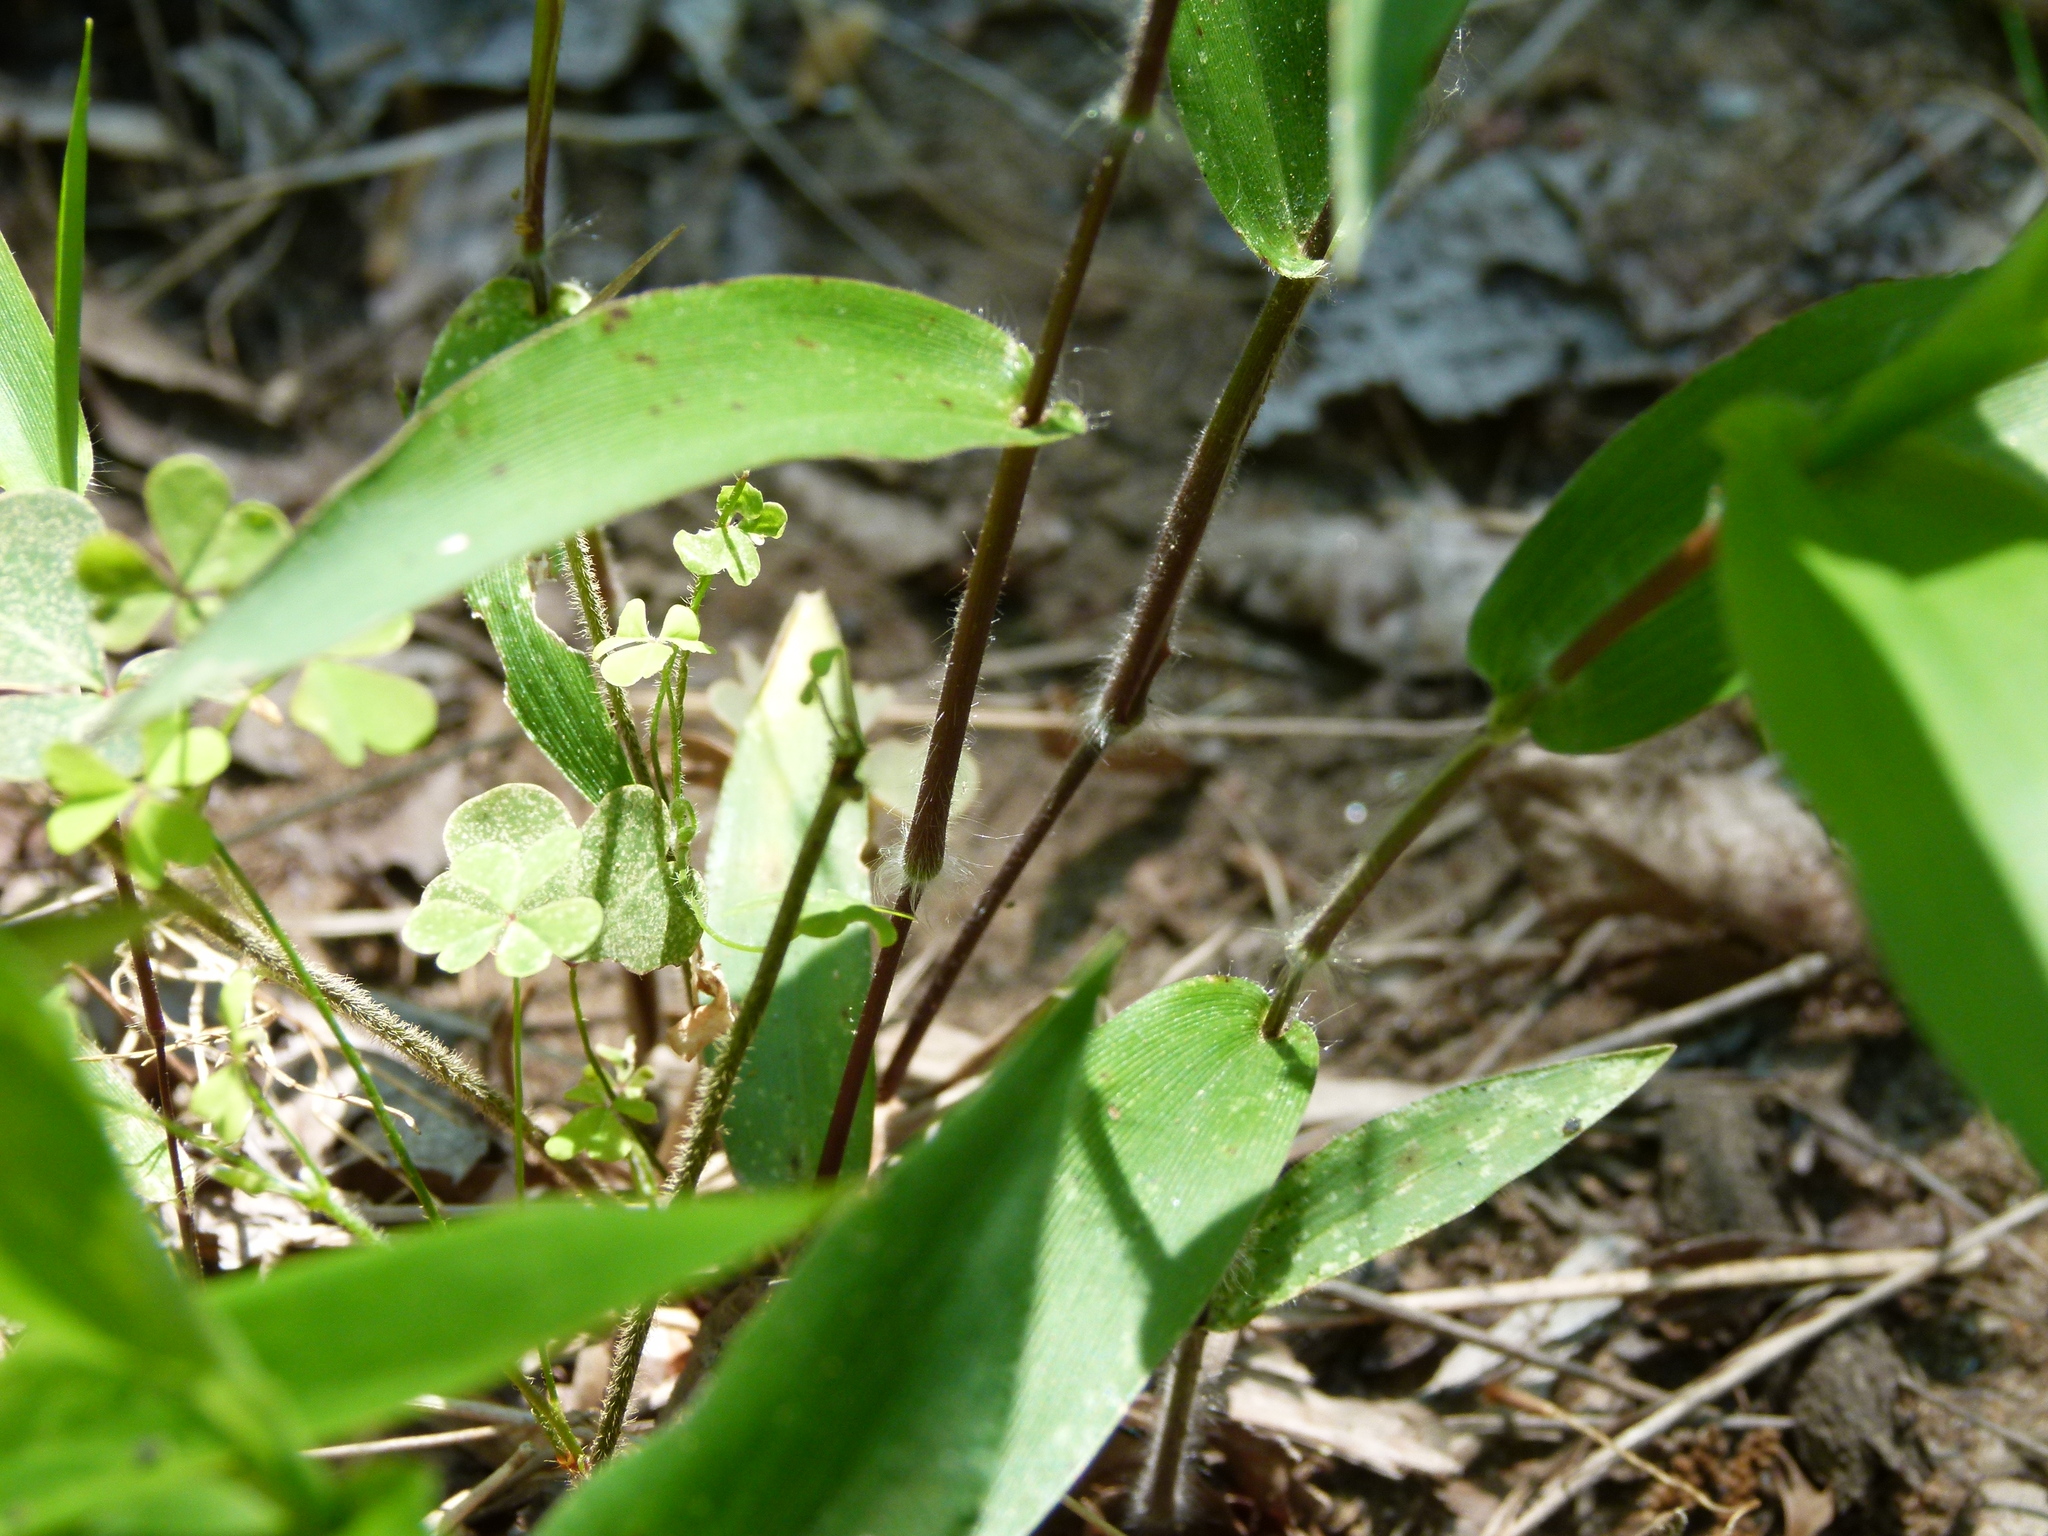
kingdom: Plantae
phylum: Tracheophyta
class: Liliopsida
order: Poales
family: Poaceae
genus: Dichanthelium
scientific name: Dichanthelium boscii
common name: Bosc's panic grass
